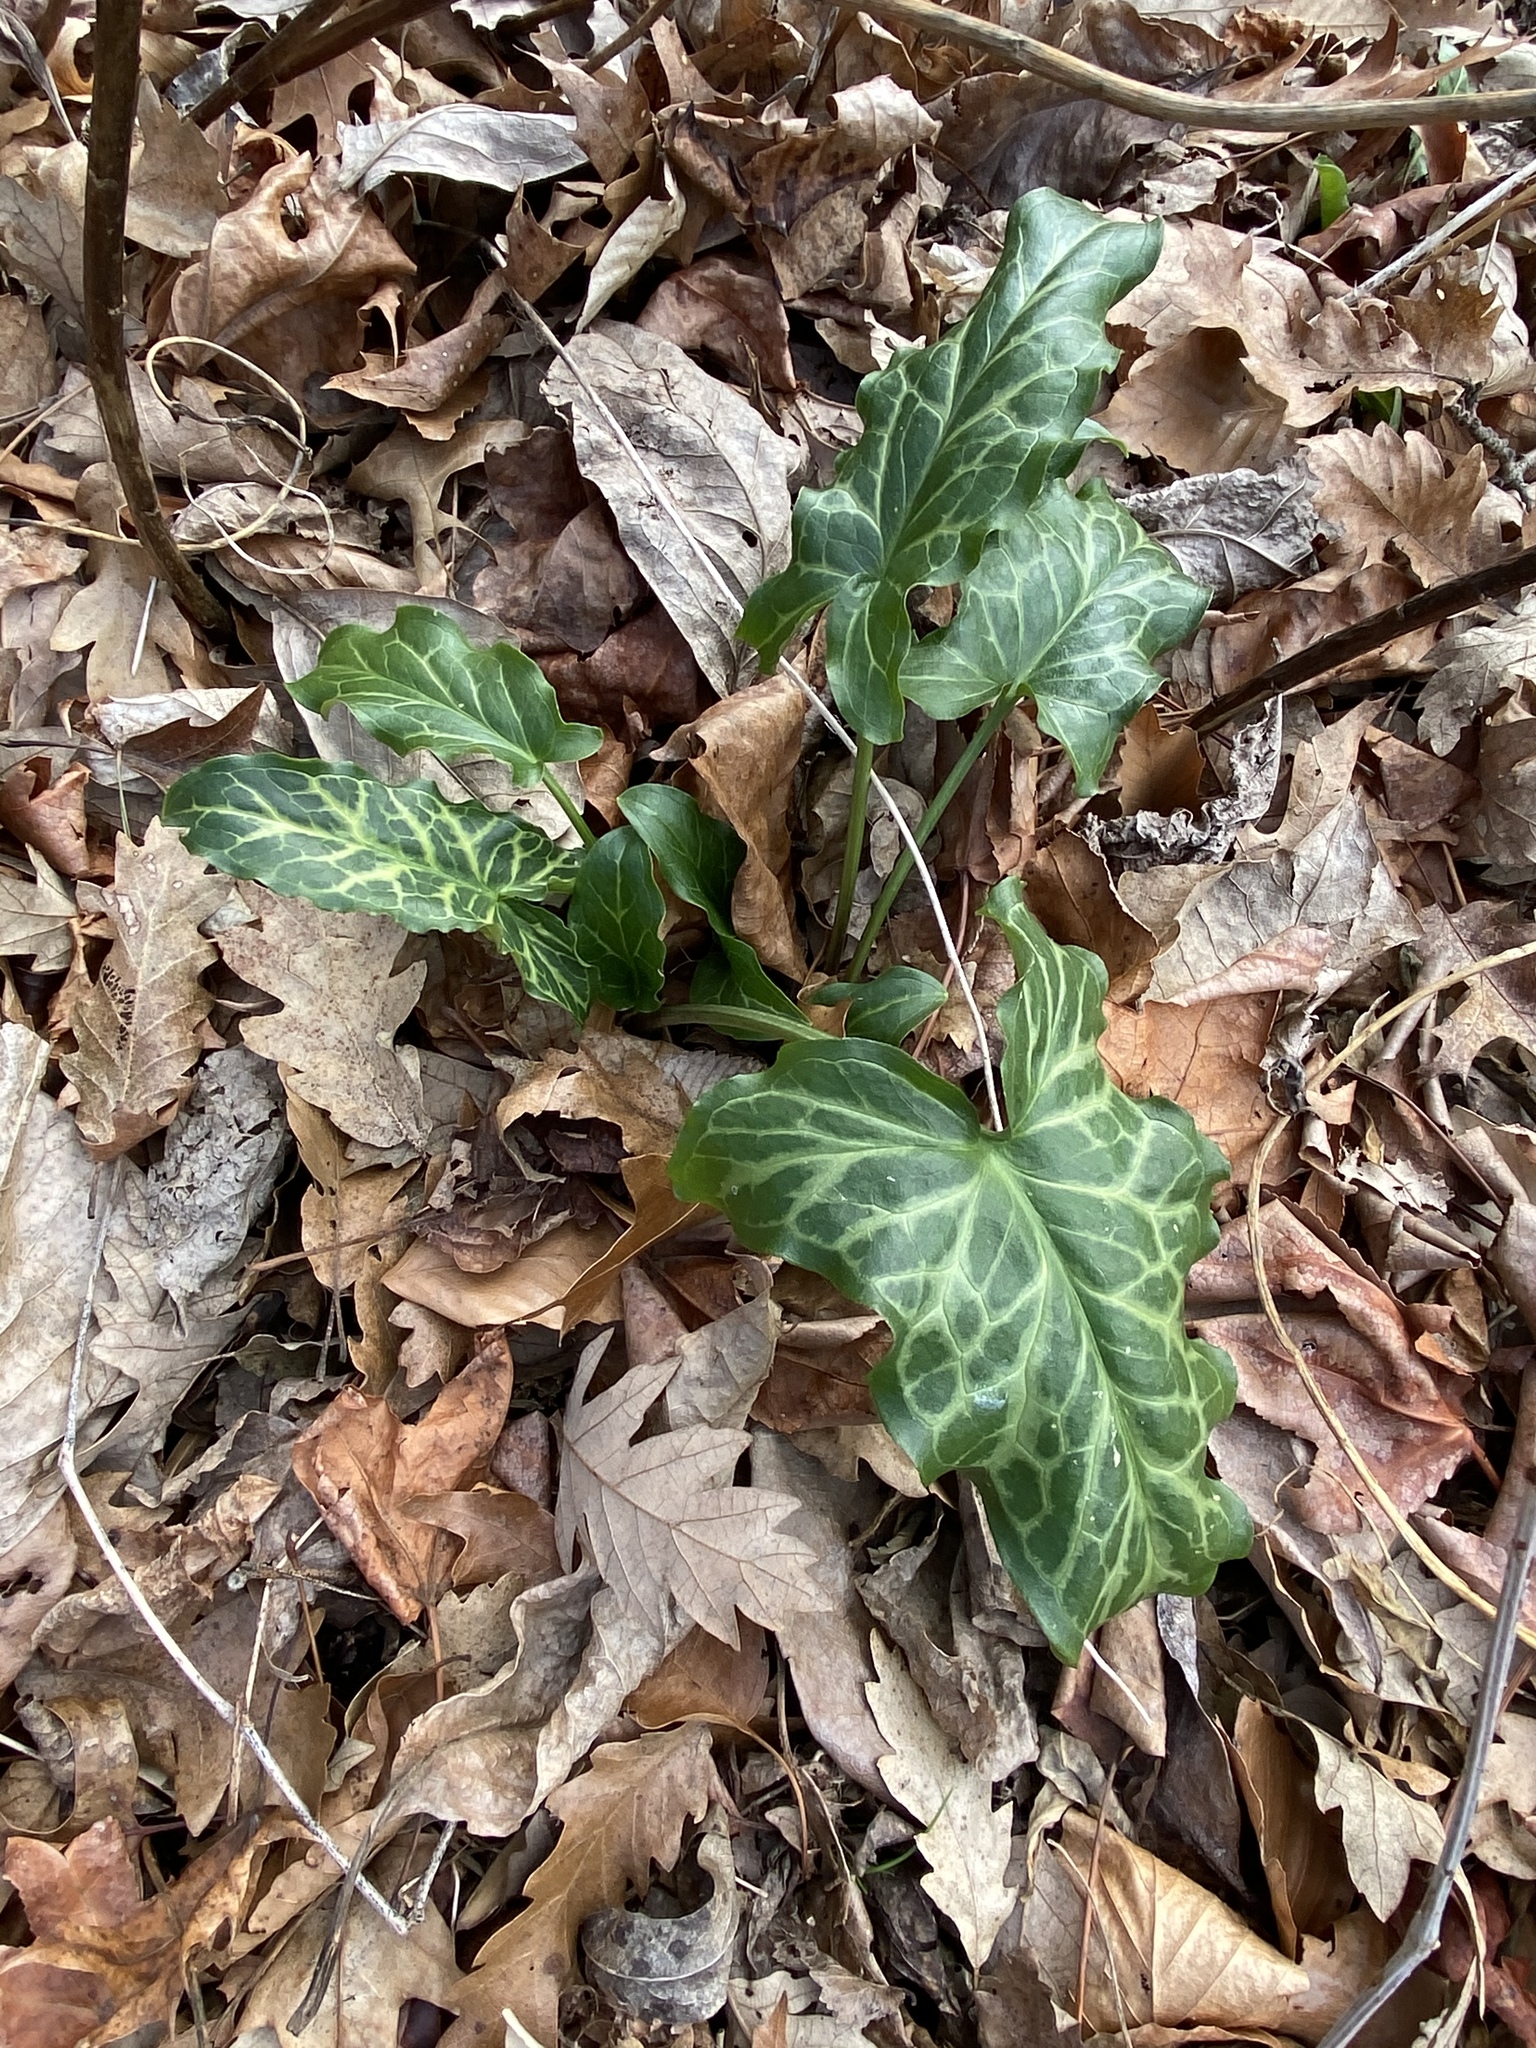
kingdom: Plantae
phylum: Tracheophyta
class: Liliopsida
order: Alismatales
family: Araceae
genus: Arum
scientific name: Arum italicum
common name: Italian lords-and-ladies
